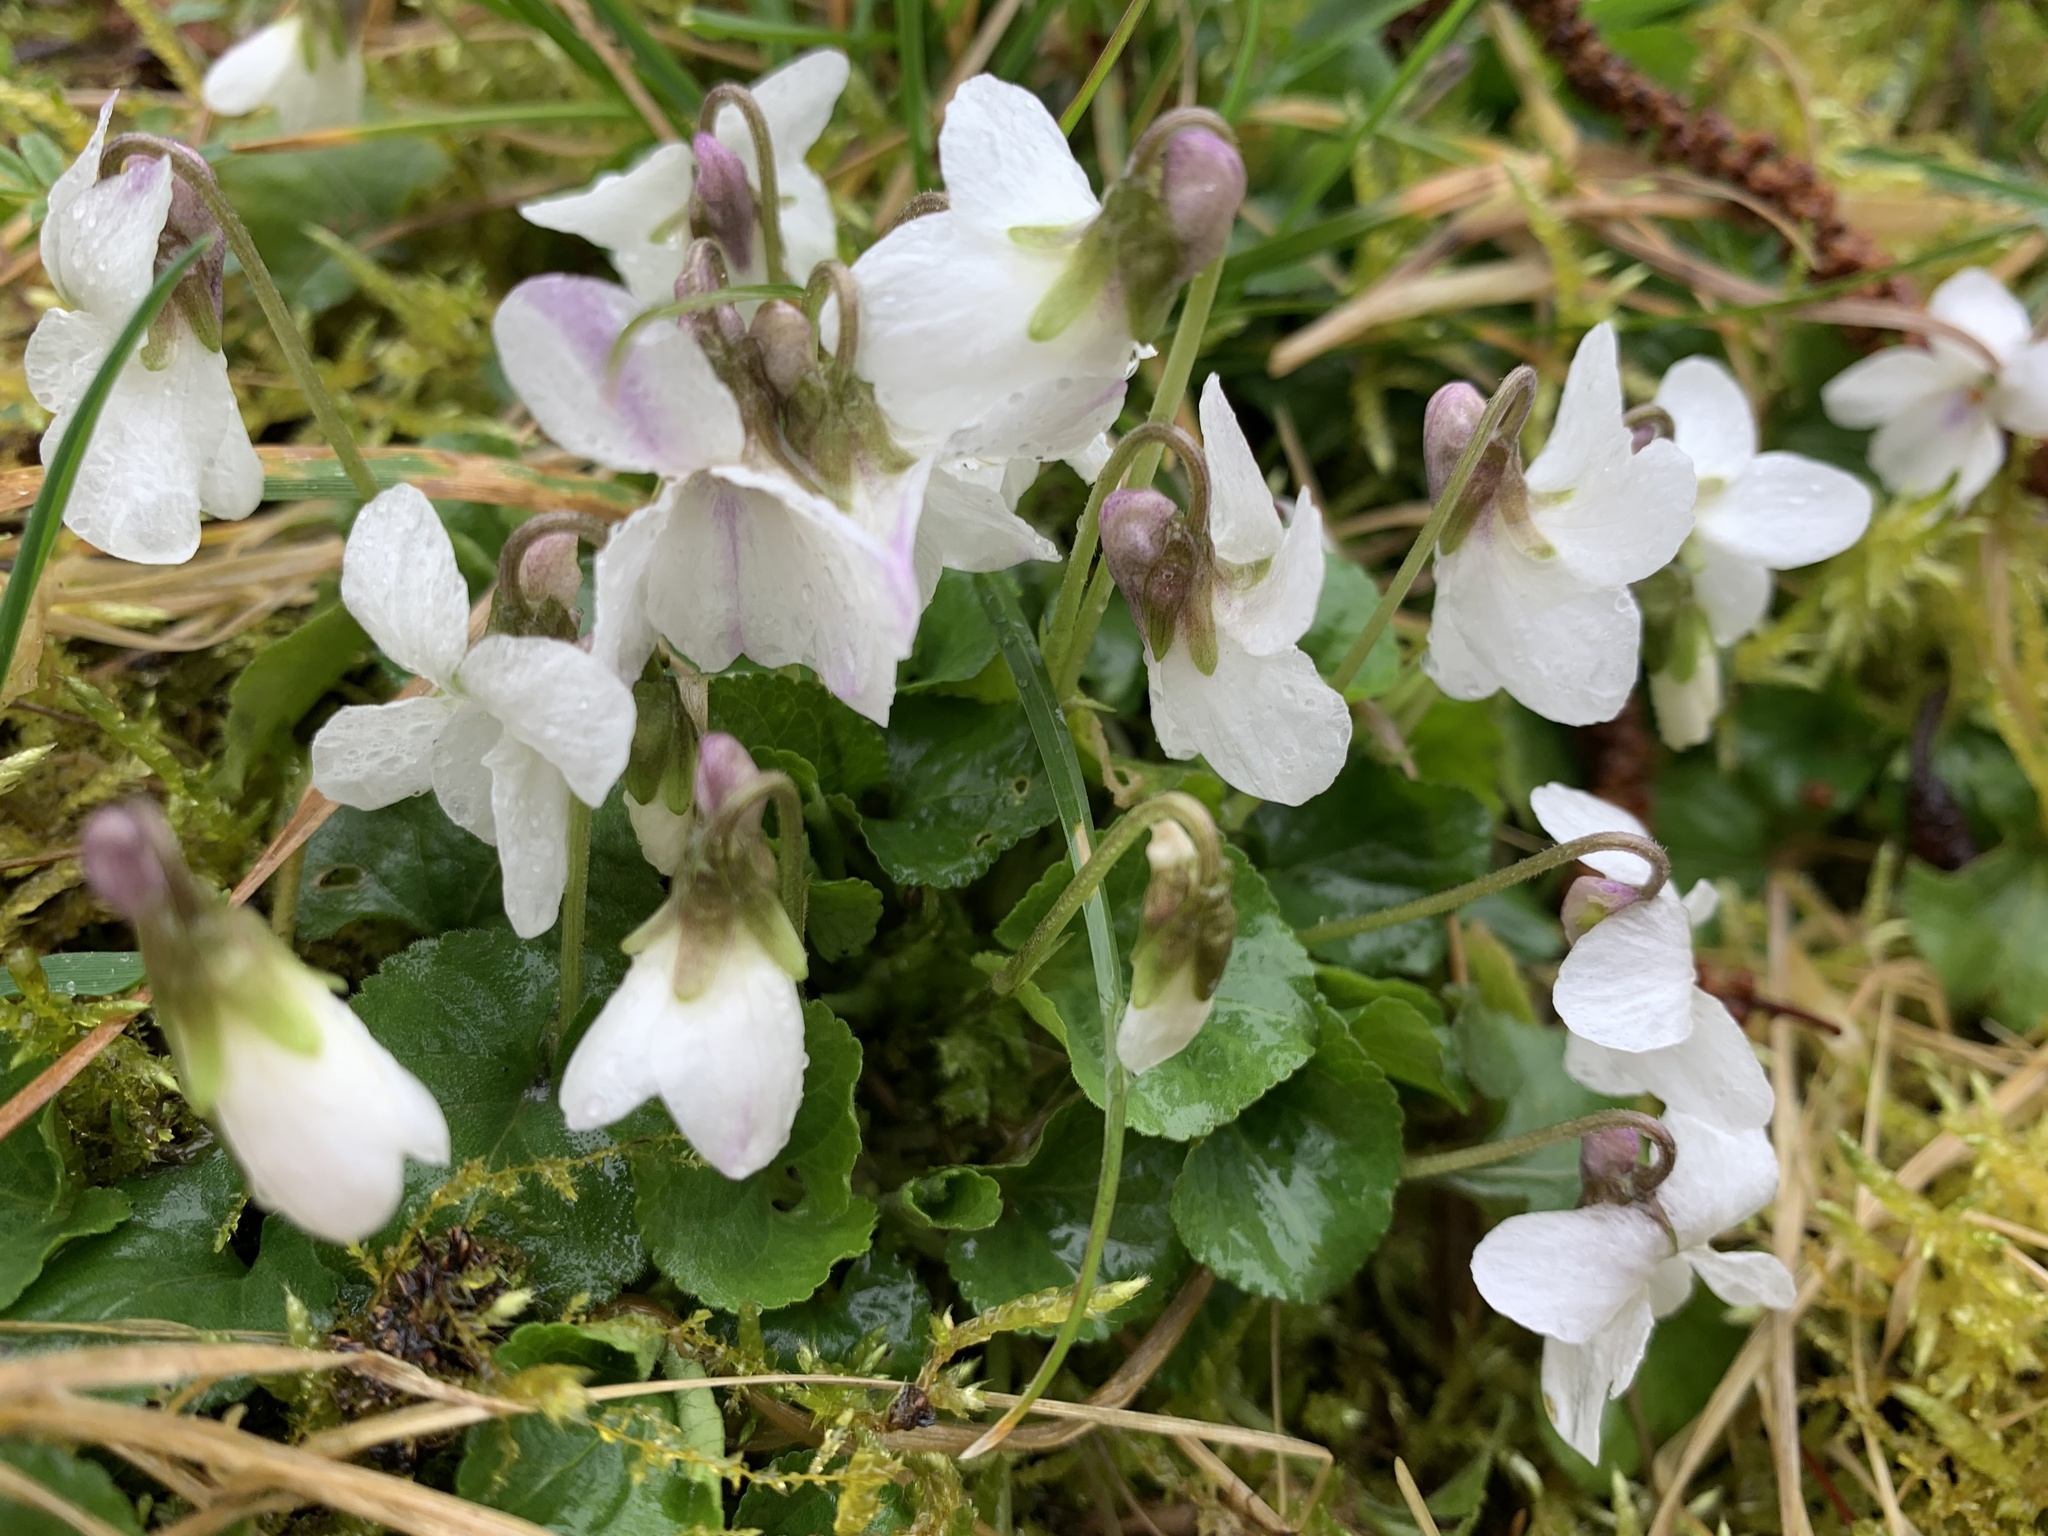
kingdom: Plantae
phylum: Tracheophyta
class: Magnoliopsida
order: Malpighiales
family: Violaceae
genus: Viola
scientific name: Viola odorata
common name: Sweet violet
